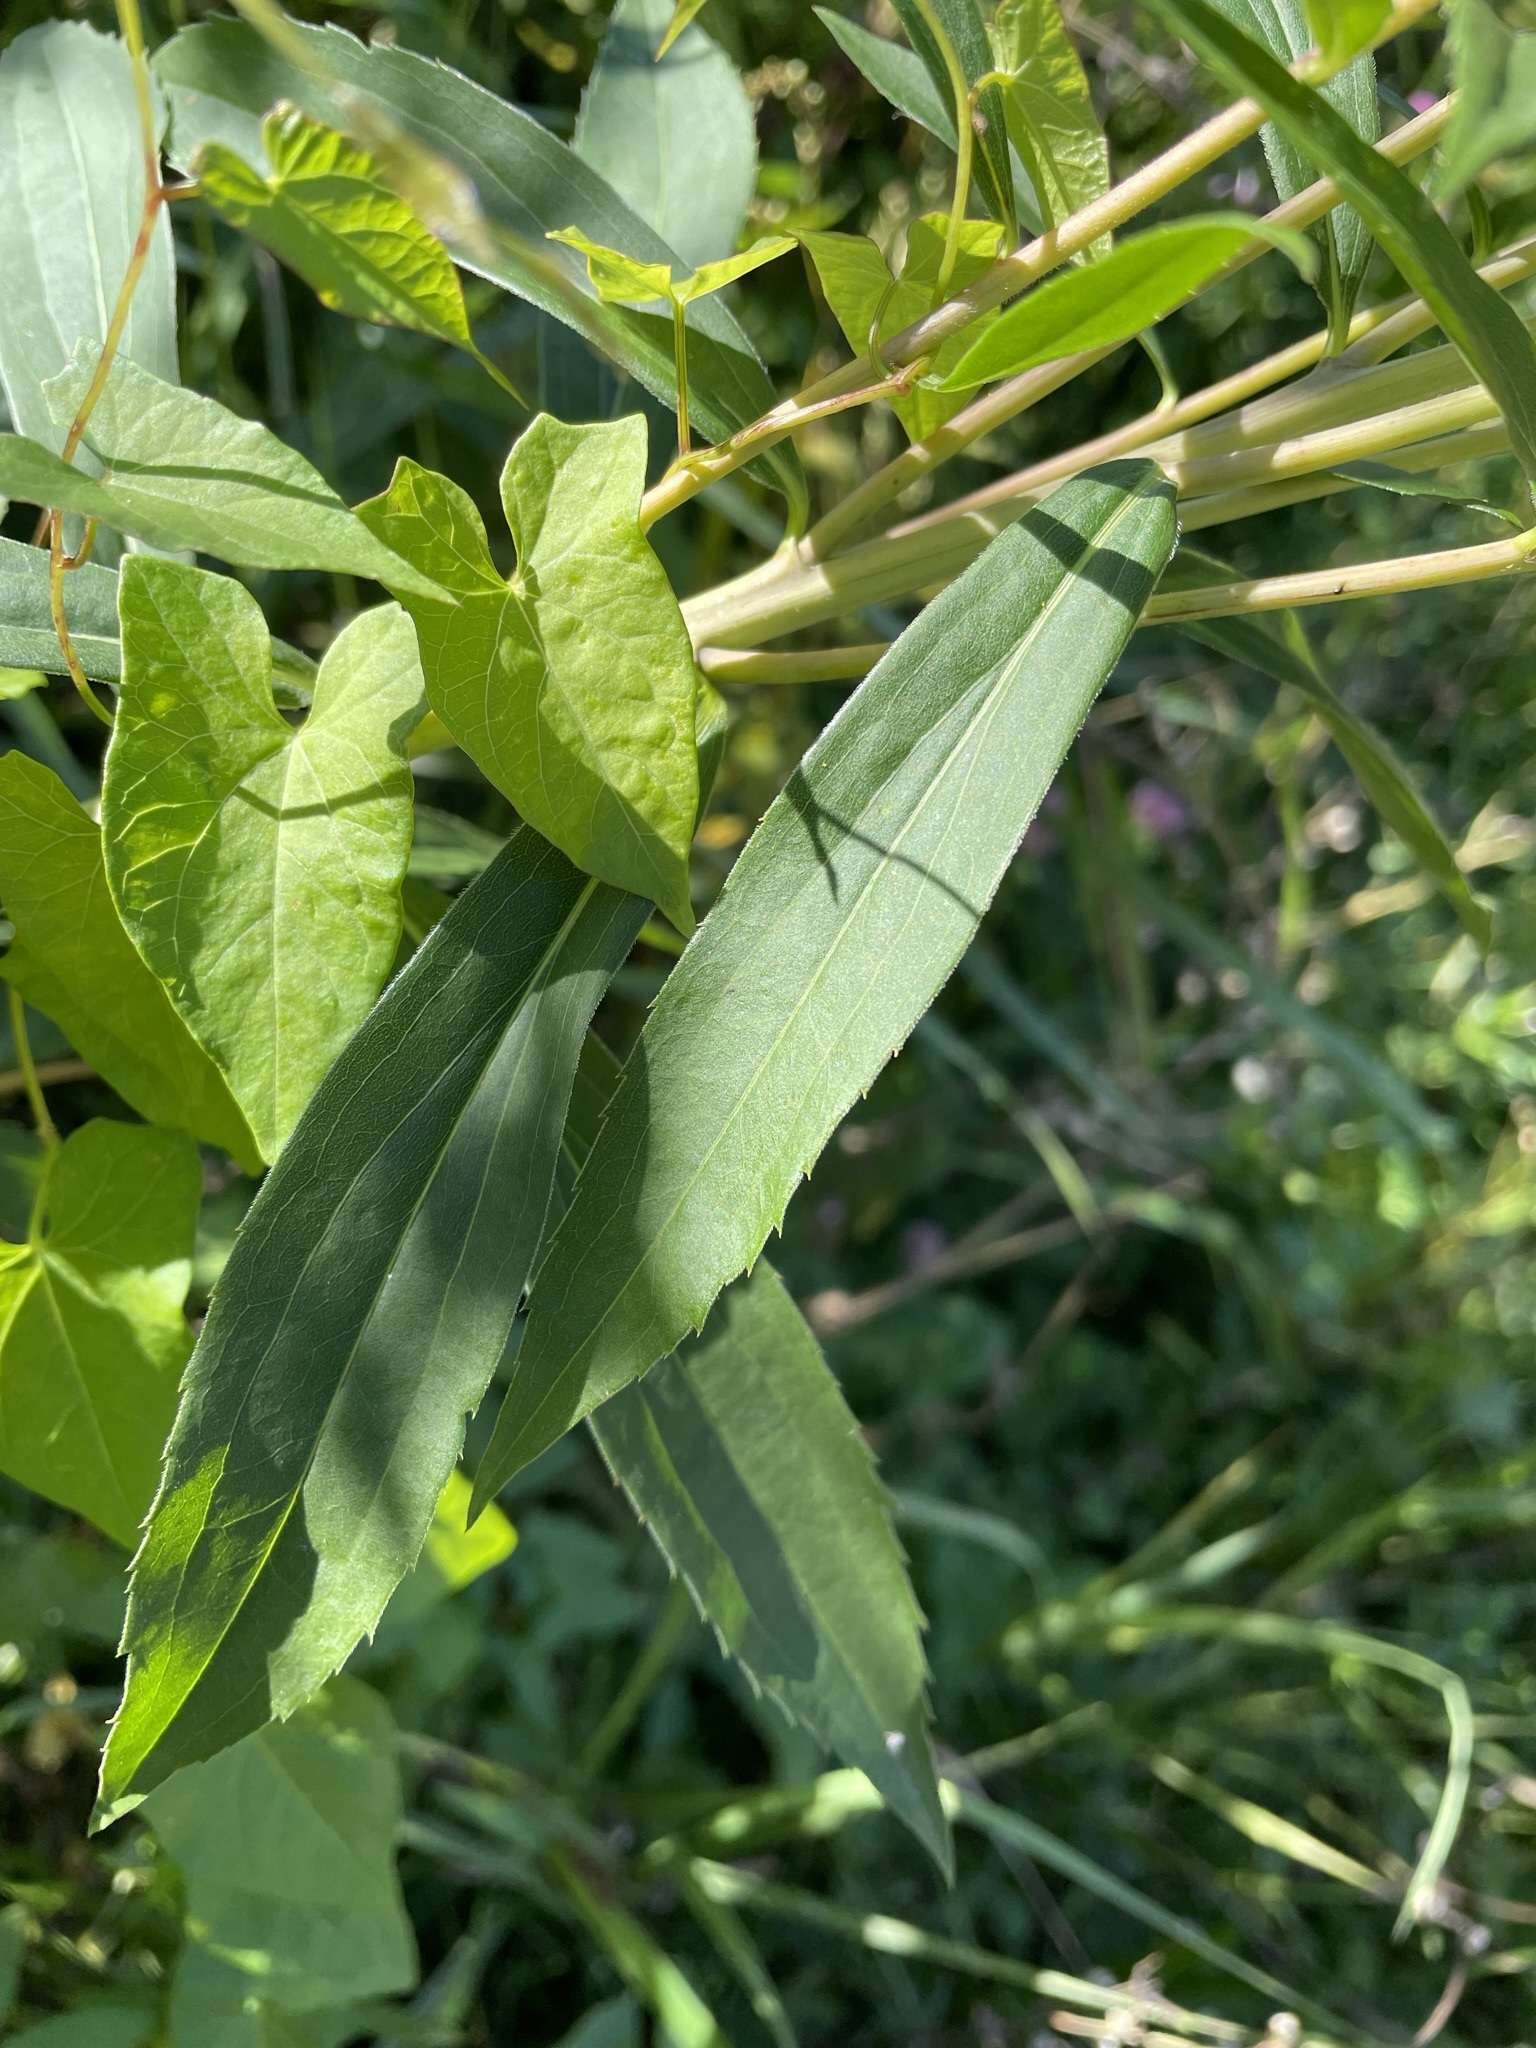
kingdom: Plantae
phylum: Tracheophyta
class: Magnoliopsida
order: Asterales
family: Asteraceae
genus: Solidago
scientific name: Solidago gigantea
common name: Giant goldenrod
